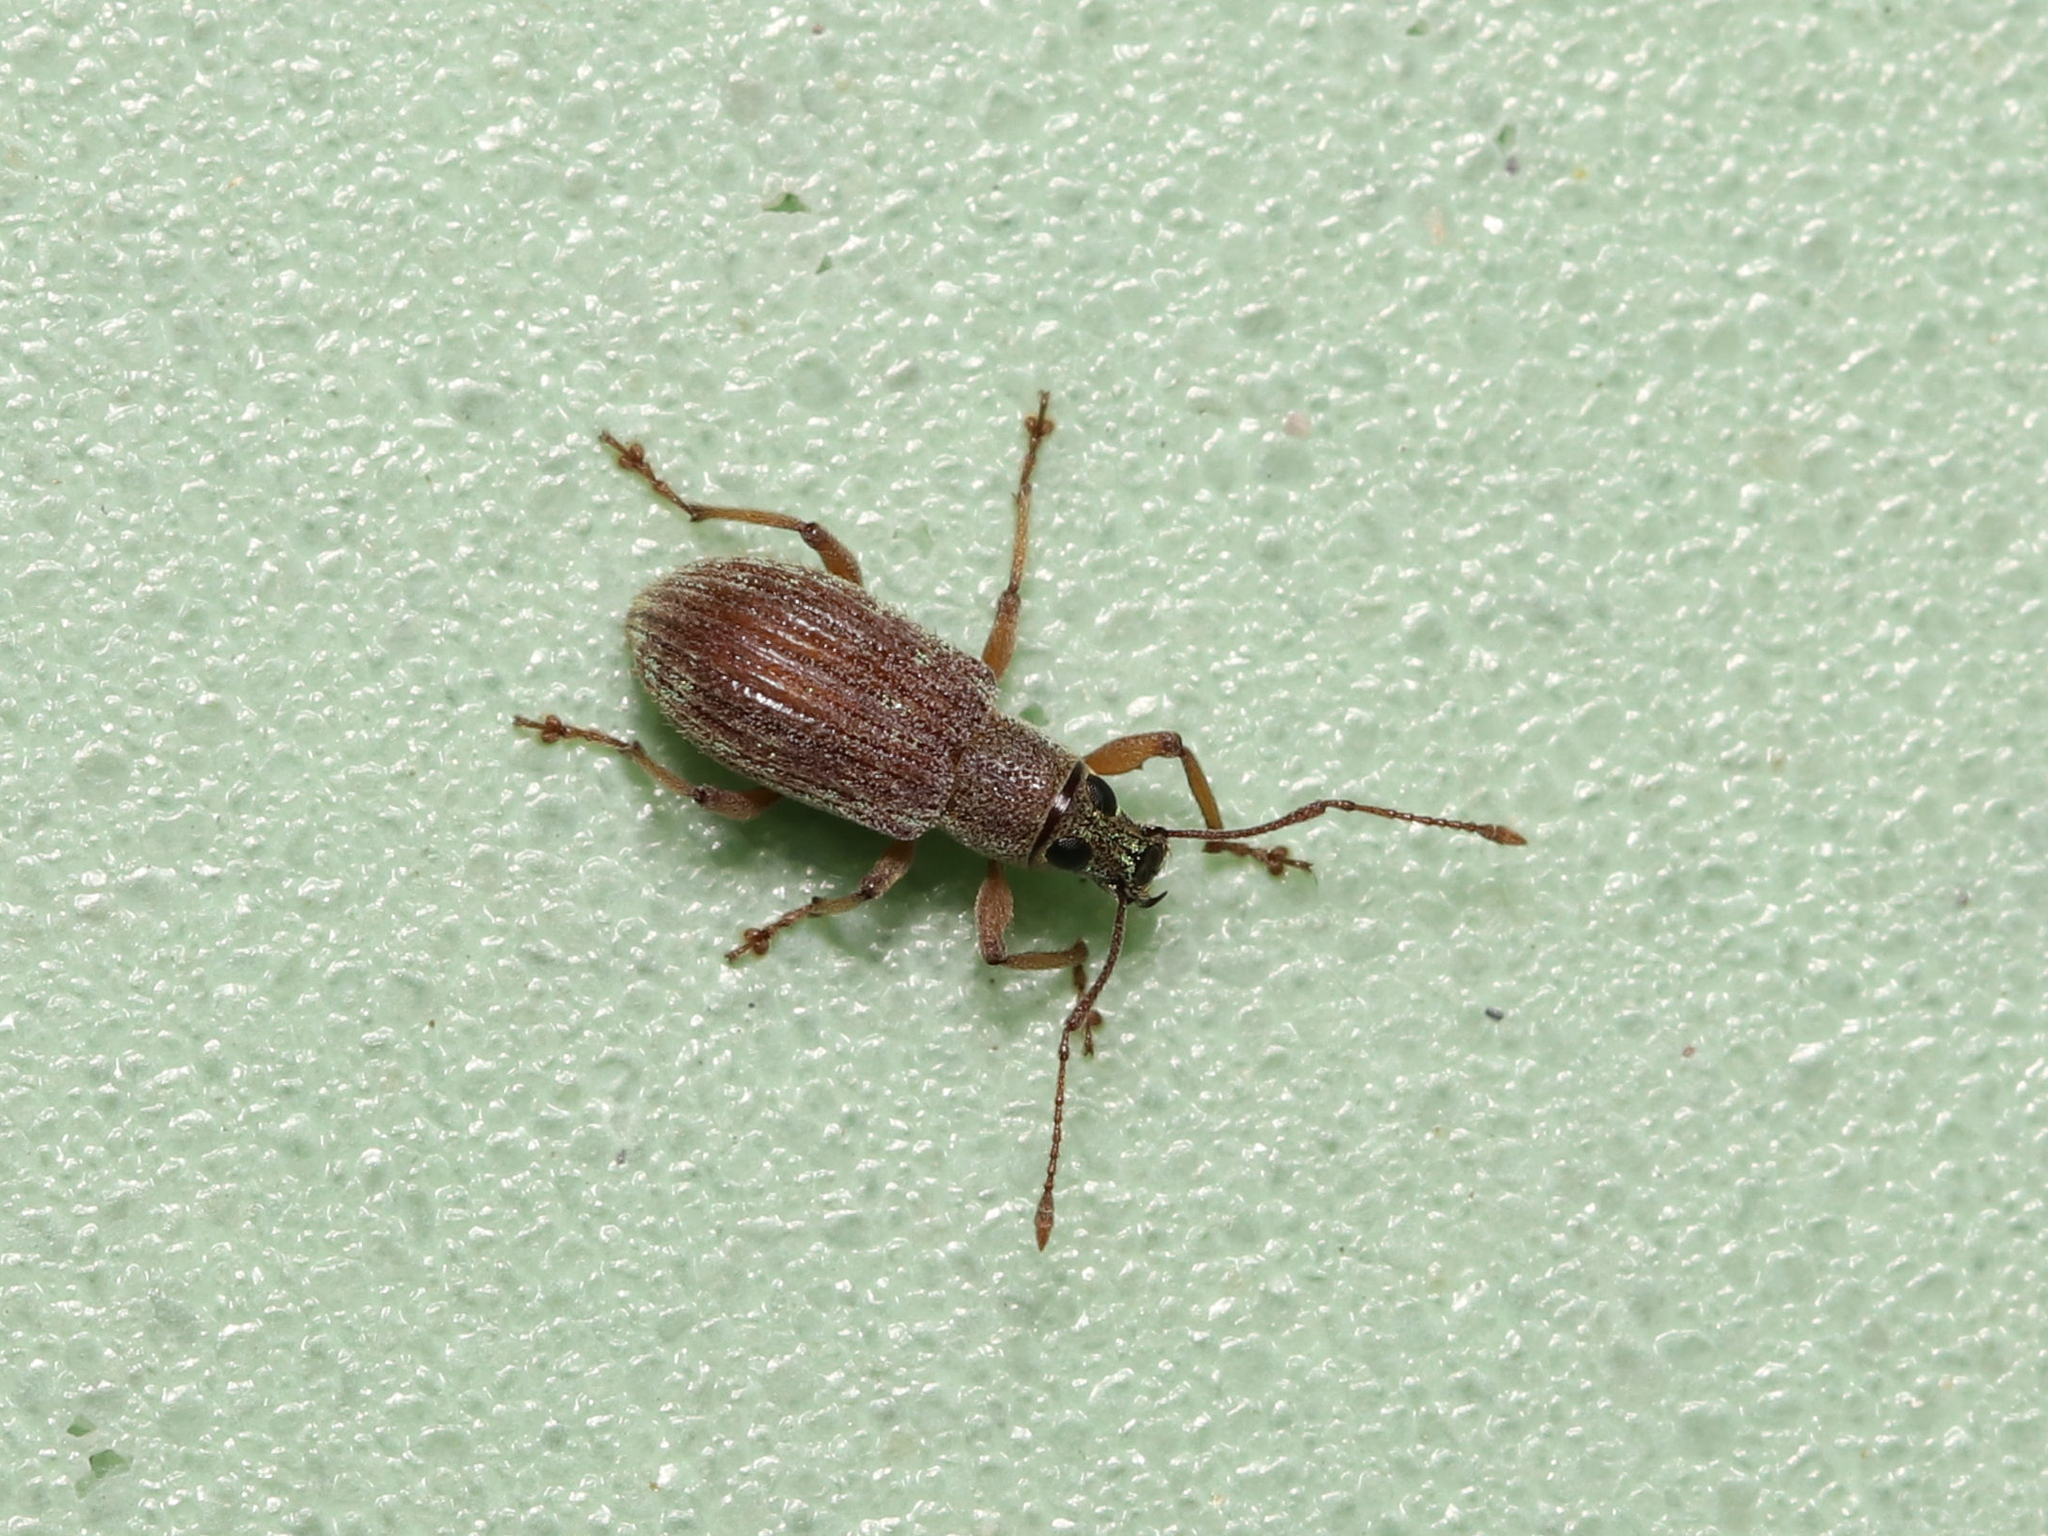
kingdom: Animalia
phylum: Arthropoda
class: Insecta
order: Coleoptera
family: Curculionidae
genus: Cyrtepistomus
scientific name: Cyrtepistomus castaneus
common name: Weevil
